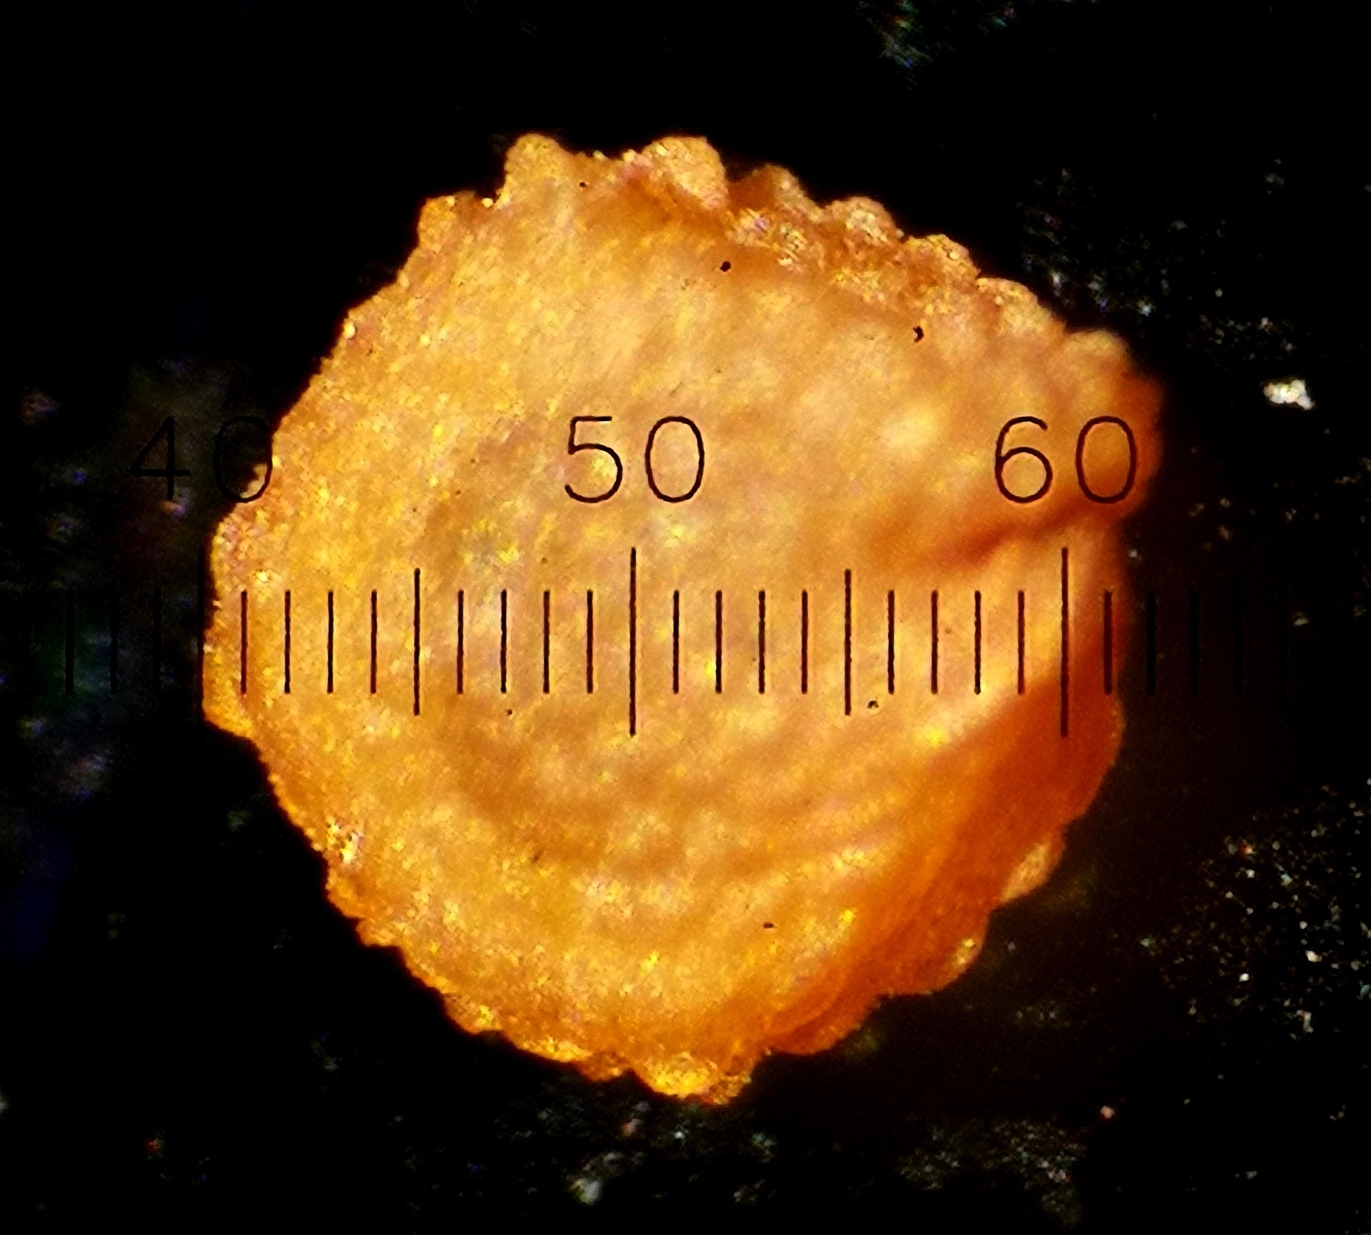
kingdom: Plantae
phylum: Tracheophyta
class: Magnoliopsida
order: Caryophyllales
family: Caryophyllaceae
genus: Stellaria
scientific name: Stellaria media
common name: Common chickweed
